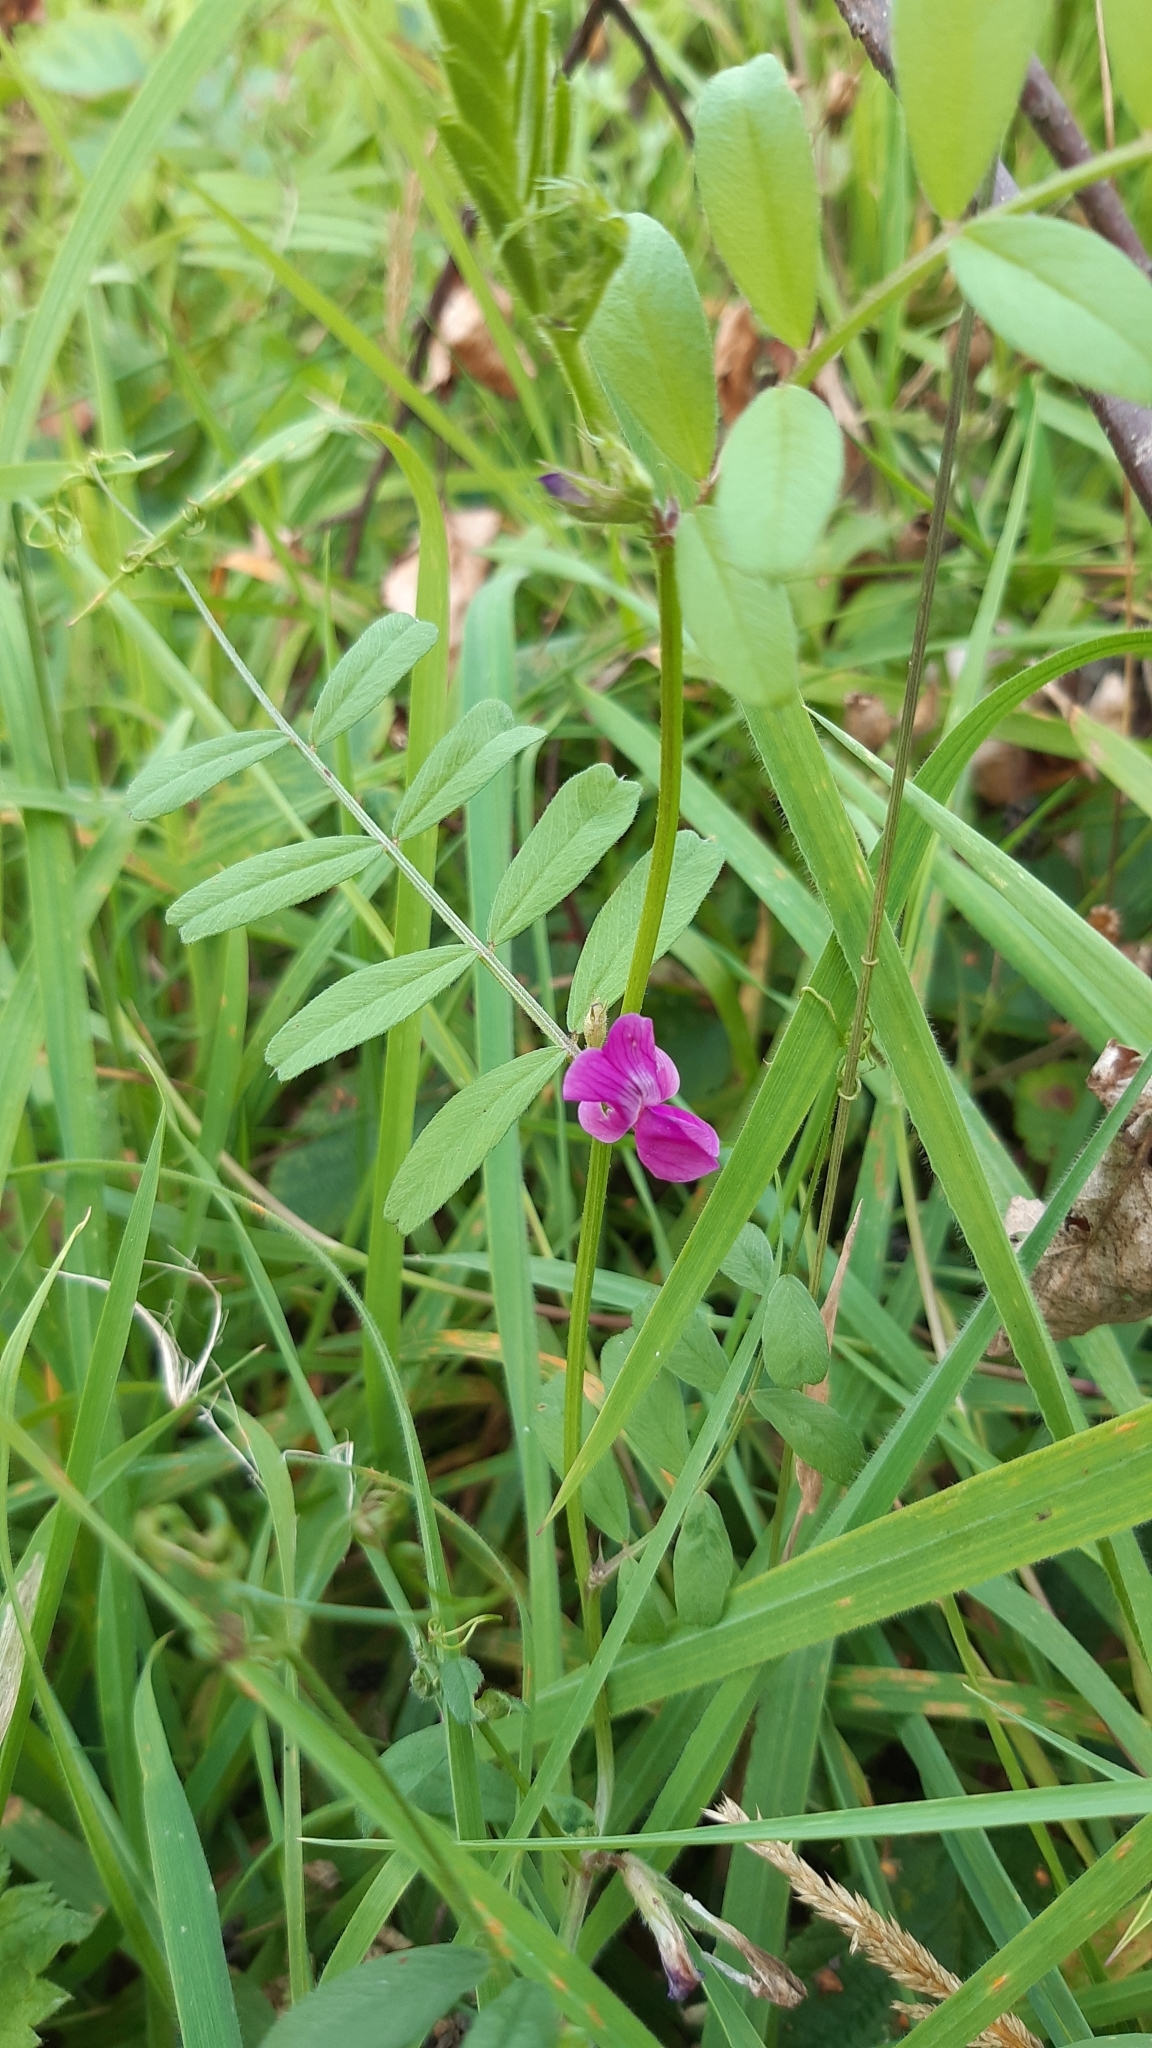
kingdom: Plantae
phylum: Tracheophyta
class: Magnoliopsida
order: Fabales
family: Fabaceae
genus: Vicia
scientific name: Vicia sativa
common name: Garden vetch
